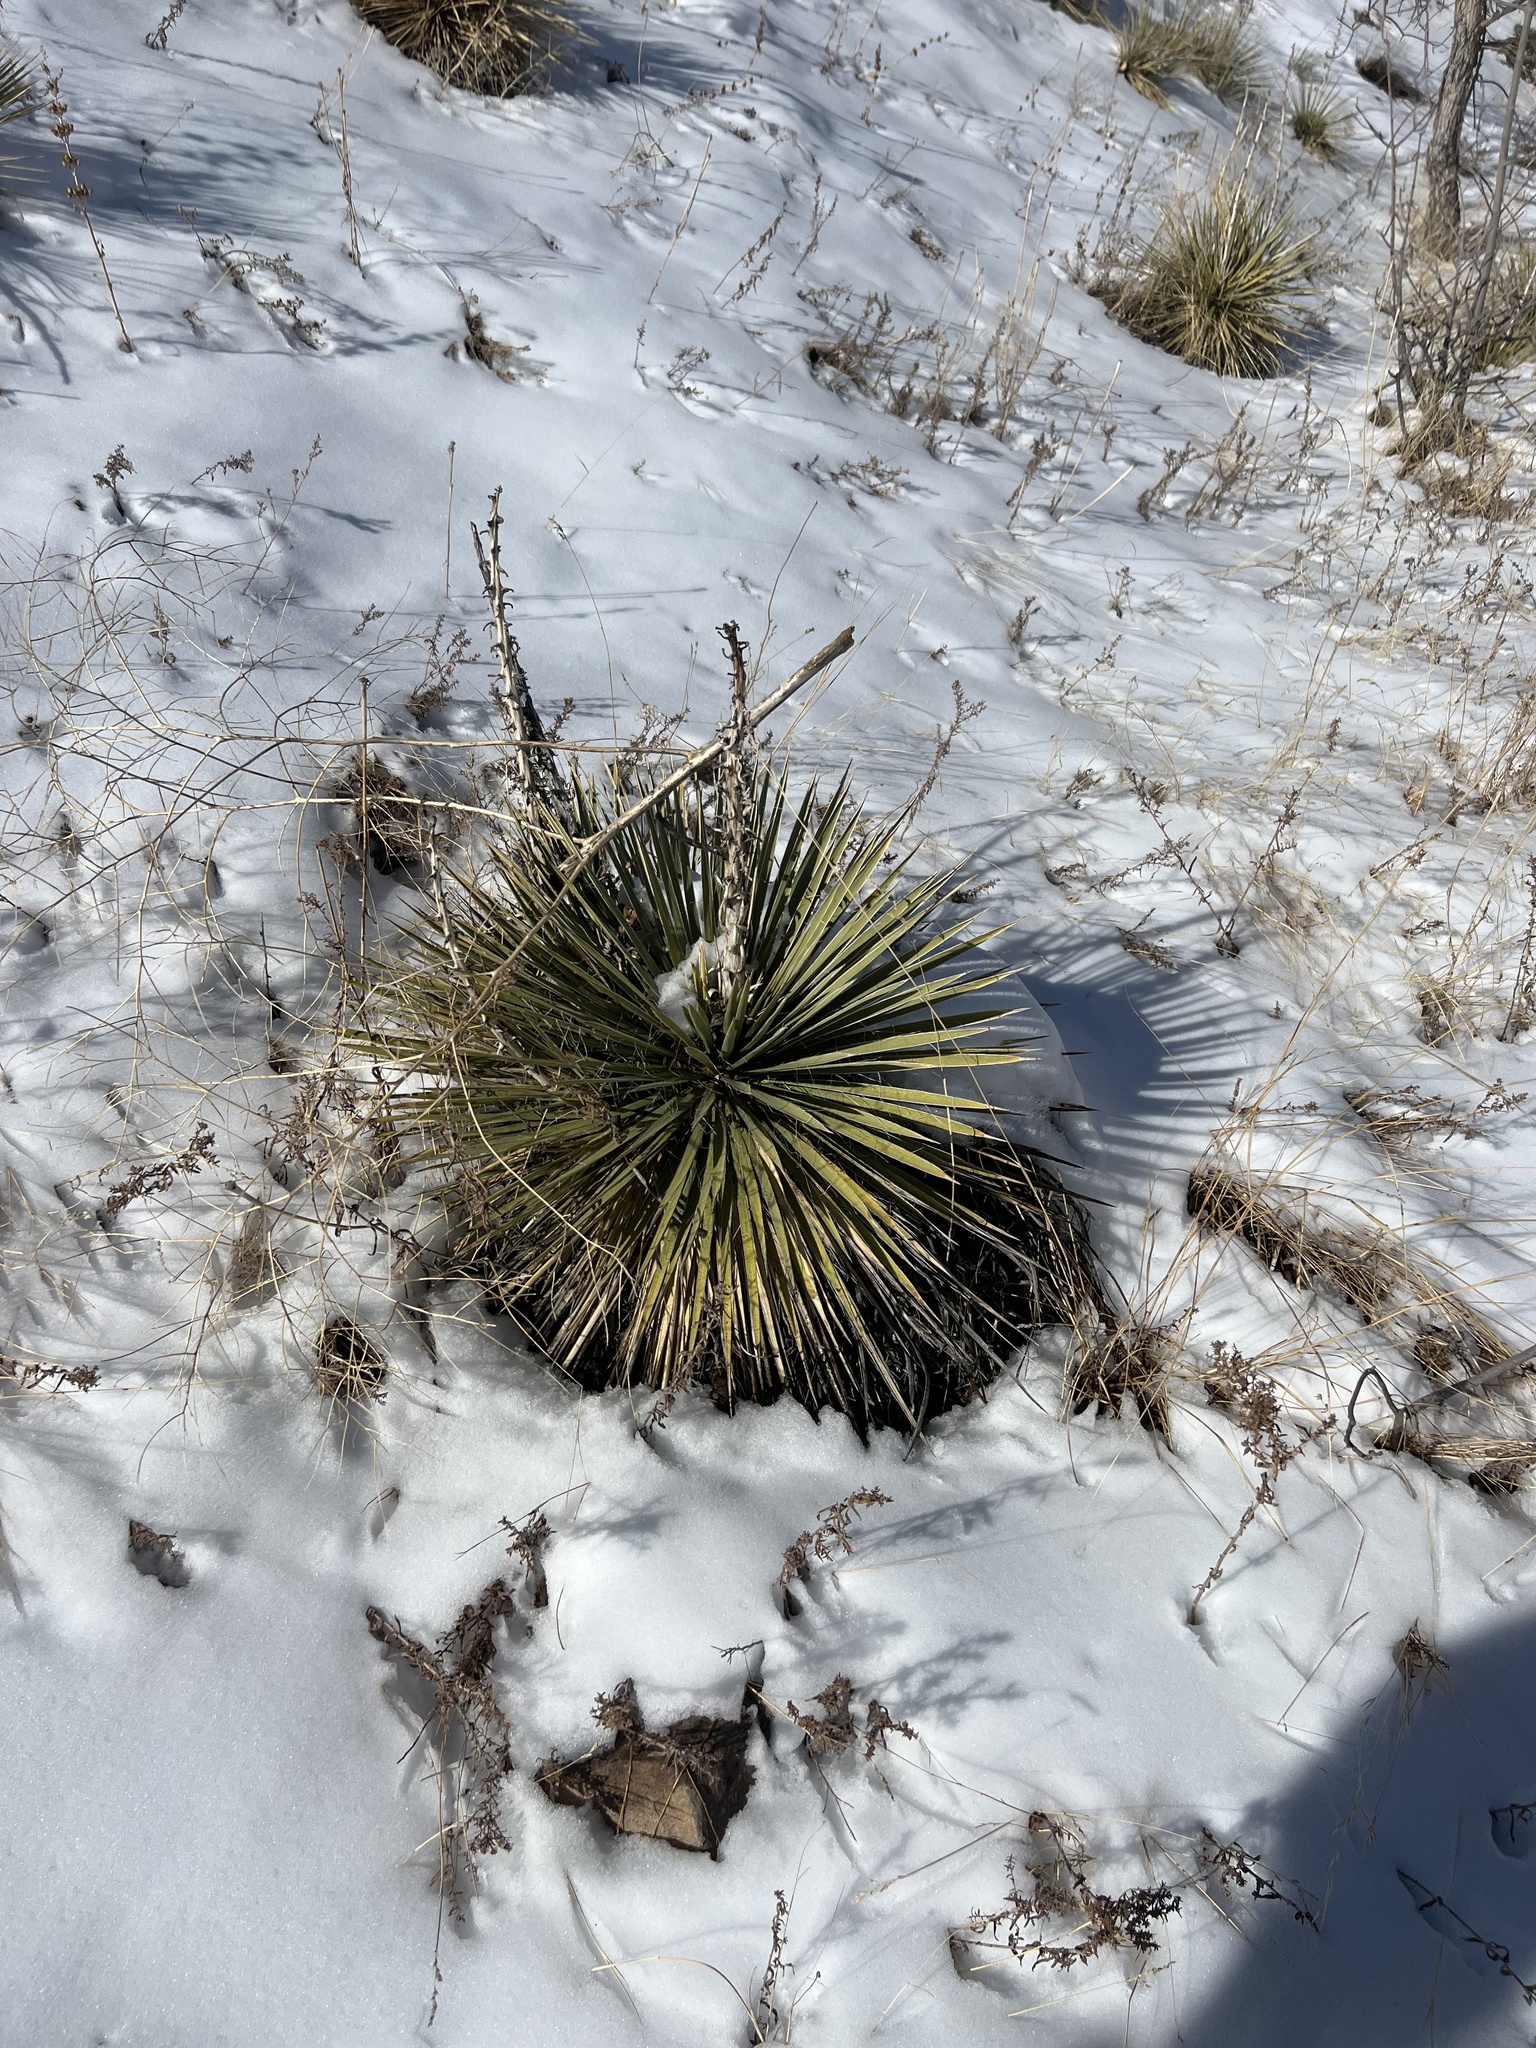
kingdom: Plantae
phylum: Tracheophyta
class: Liliopsida
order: Asparagales
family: Asparagaceae
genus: Yucca
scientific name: Yucca glauca
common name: Great plains yucca
